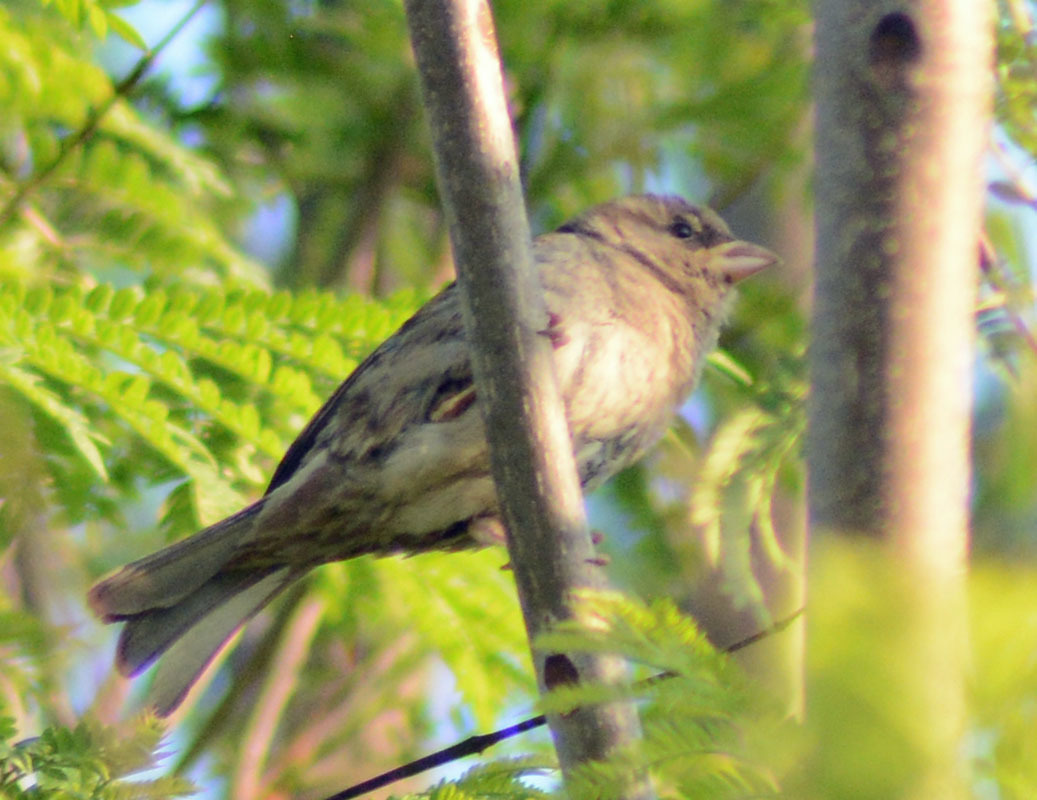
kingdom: Animalia
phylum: Chordata
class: Aves
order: Passeriformes
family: Passeridae
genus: Passer
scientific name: Passer domesticus
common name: House sparrow
